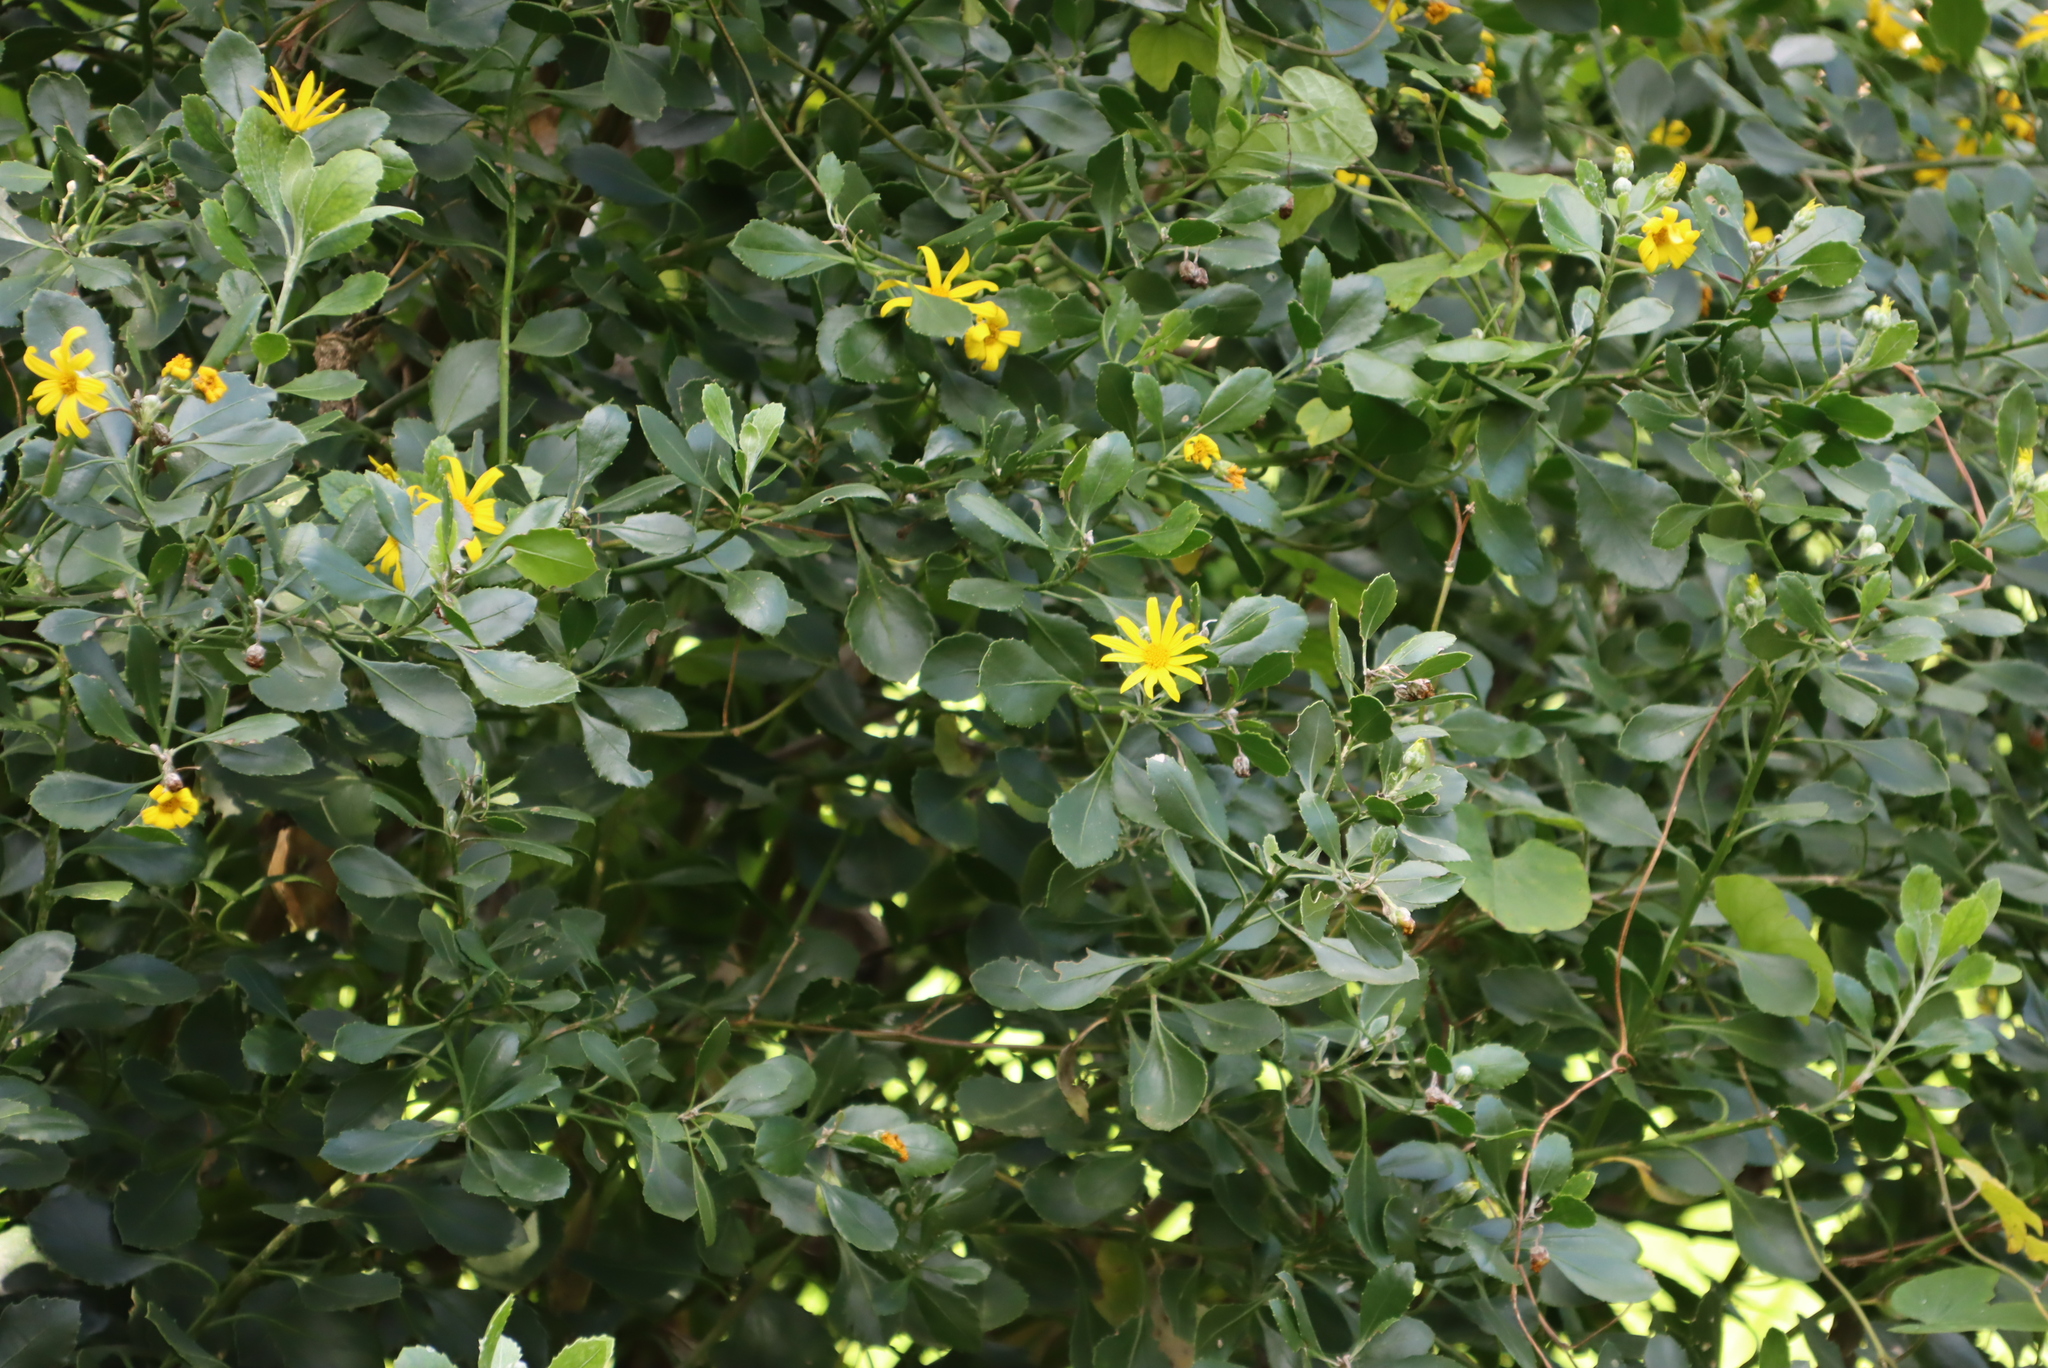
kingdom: Plantae
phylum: Tracheophyta
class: Magnoliopsida
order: Asterales
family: Asteraceae
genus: Osteospermum
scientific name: Osteospermum moniliferum
